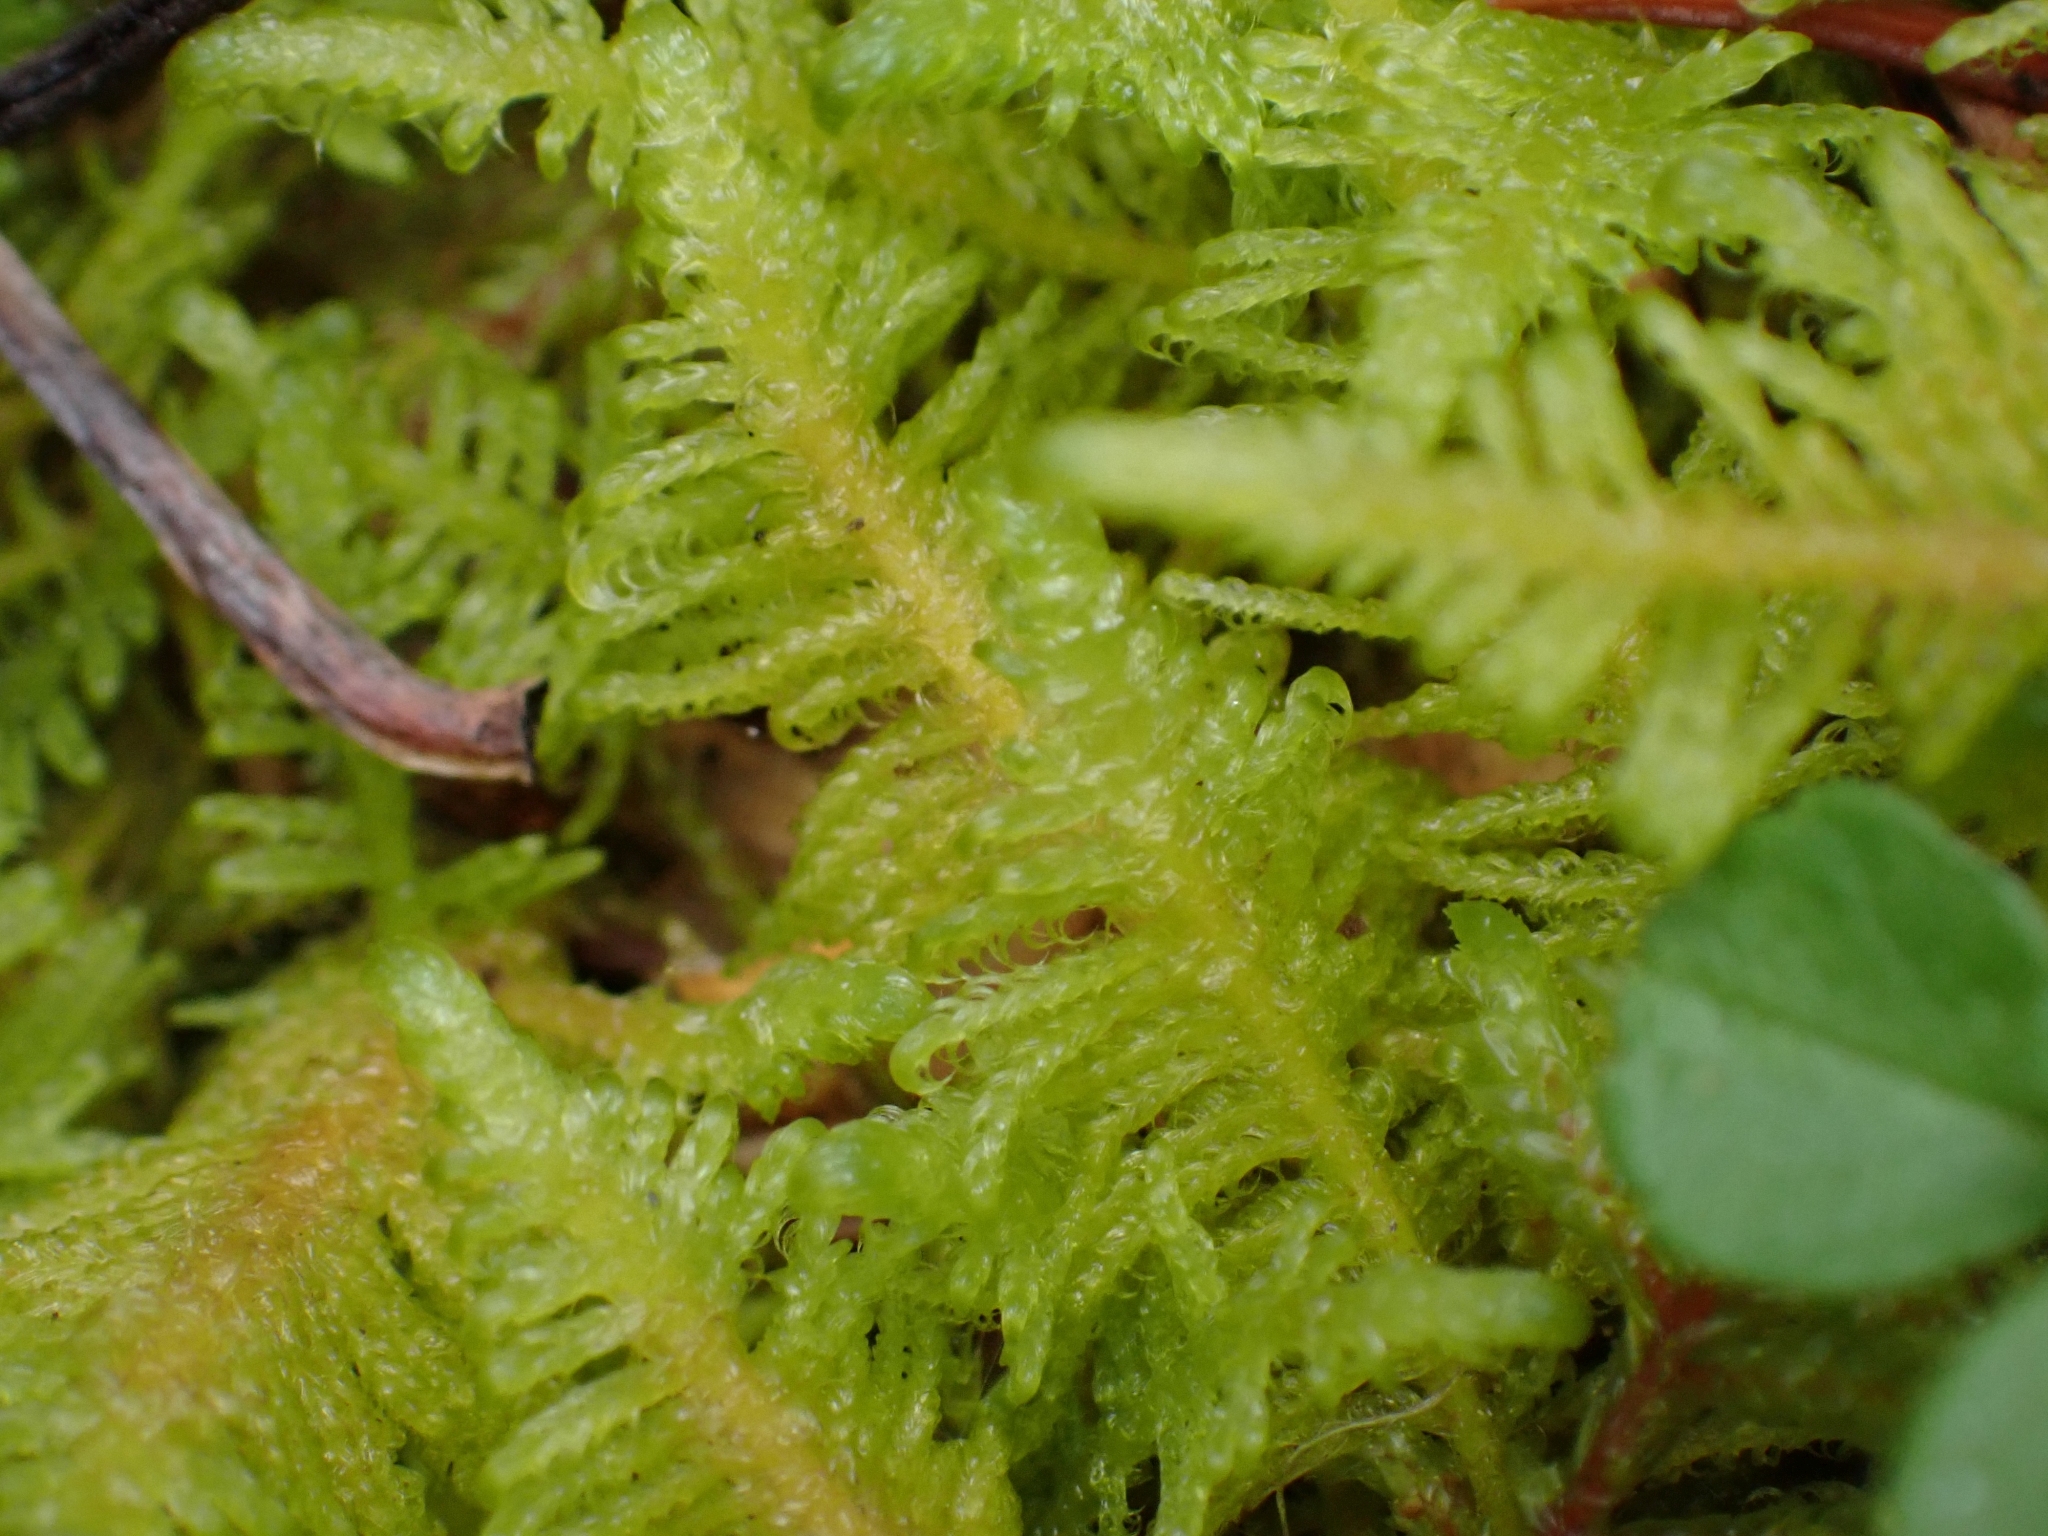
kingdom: Plantae
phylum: Bryophyta
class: Bryopsida
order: Hypnales
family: Pylaisiaceae
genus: Ptilium
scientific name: Ptilium crista-castrensis
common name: Knight's plume moss
